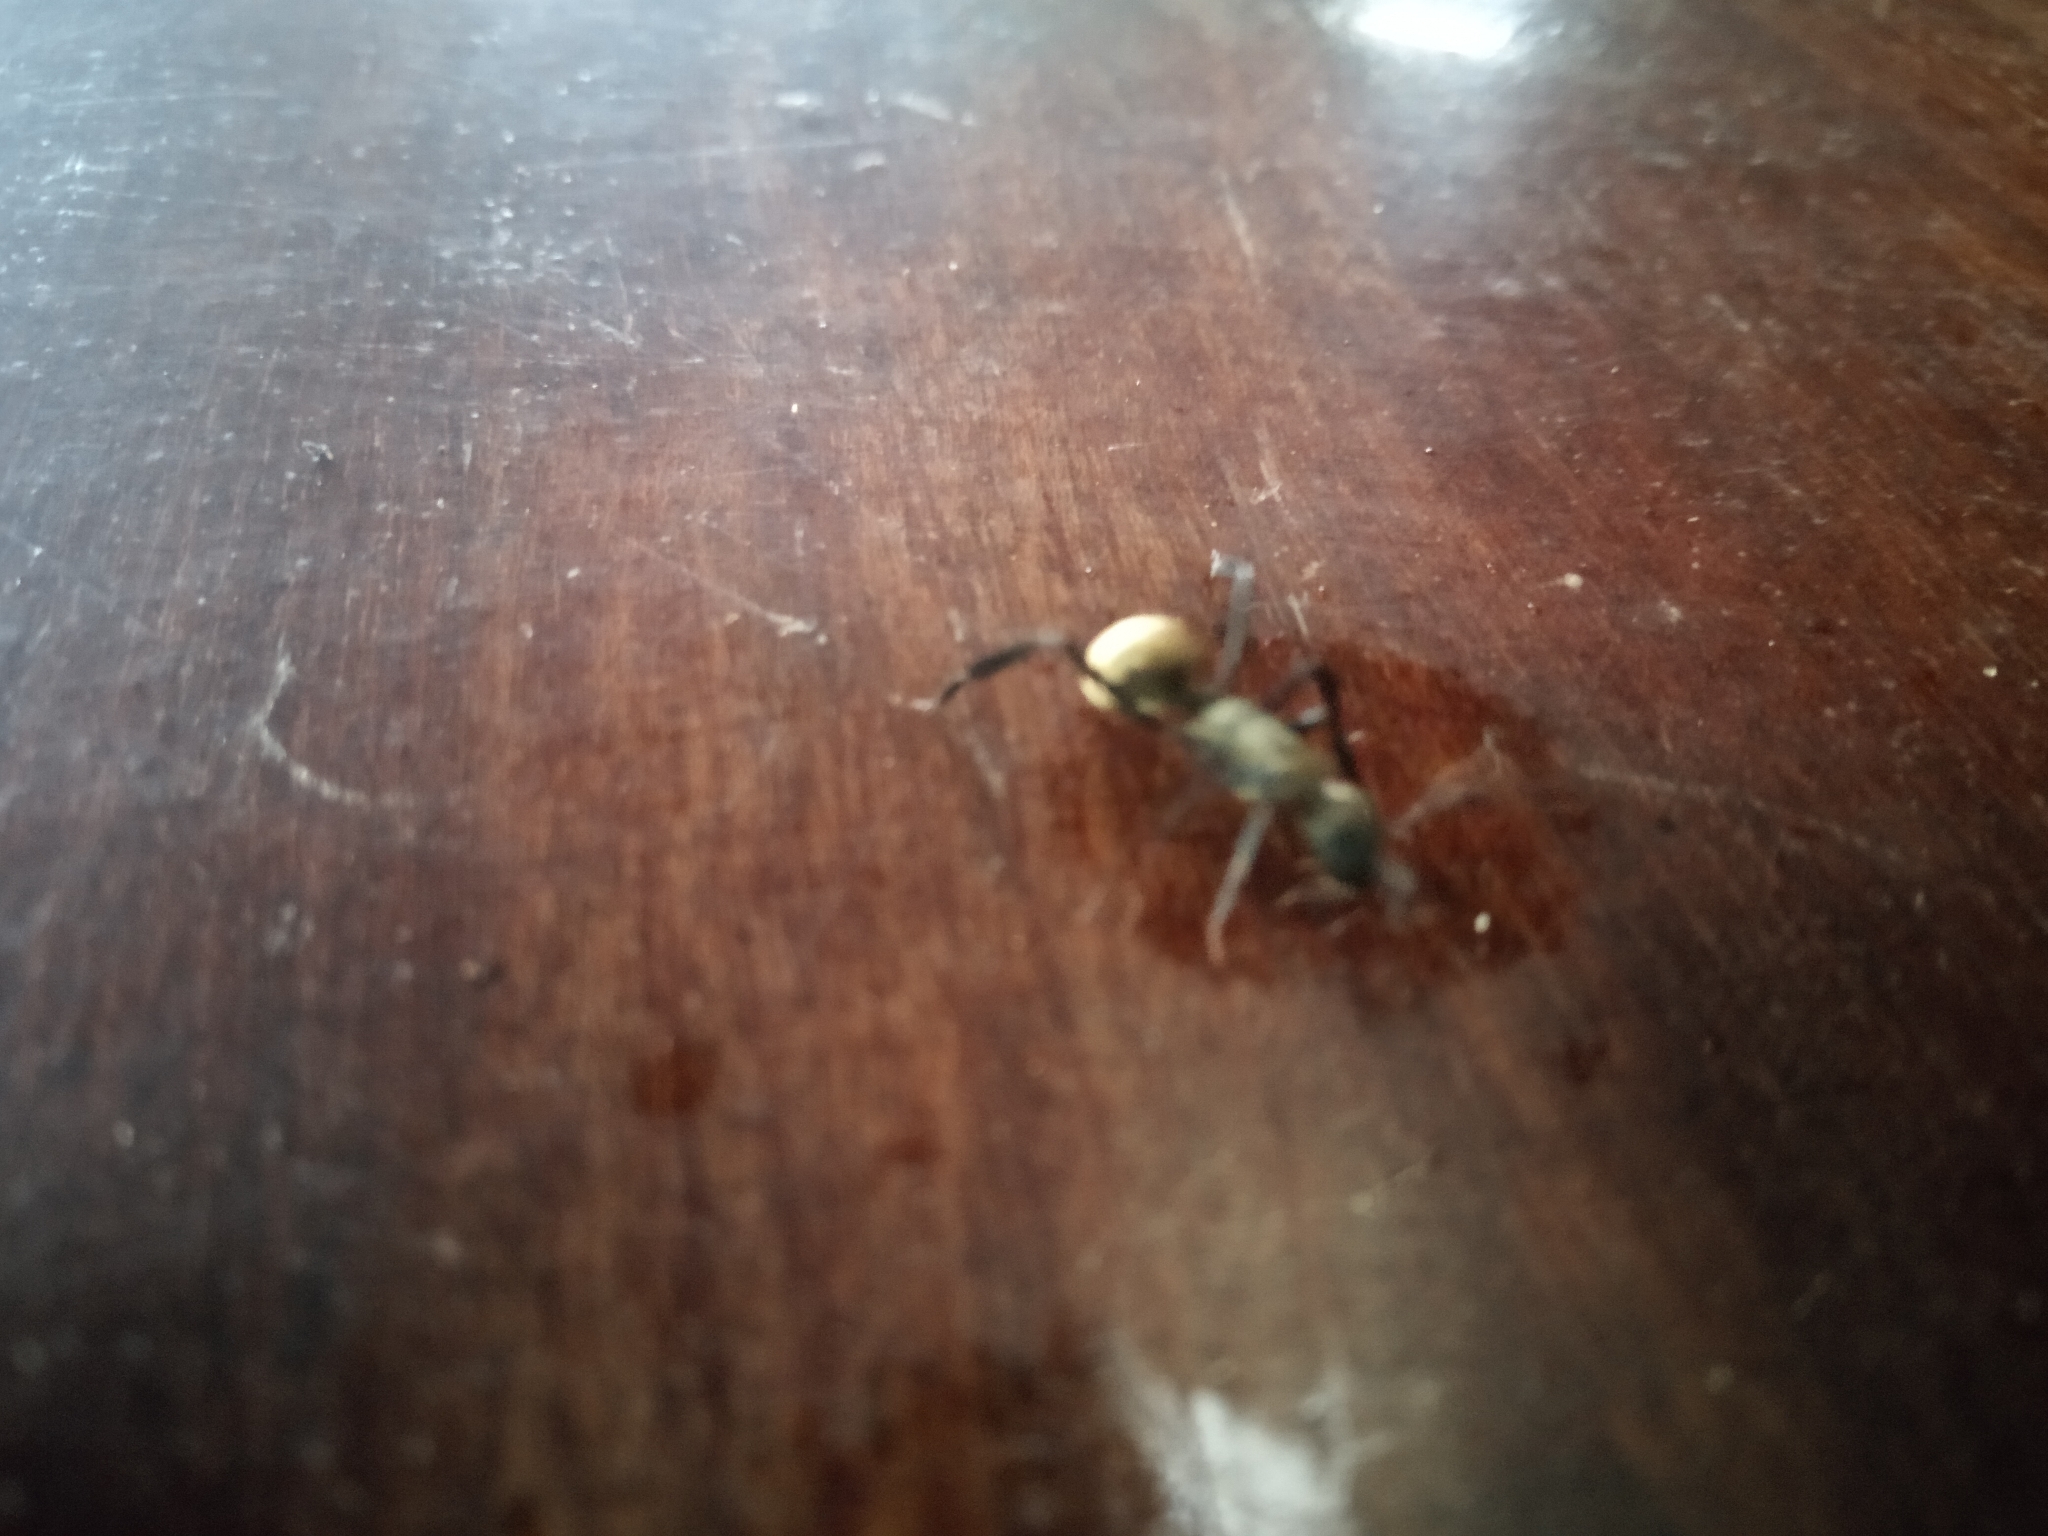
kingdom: Animalia
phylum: Arthropoda
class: Insecta
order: Hymenoptera
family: Formicidae
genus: Camponotus
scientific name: Camponotus sericeiventris
